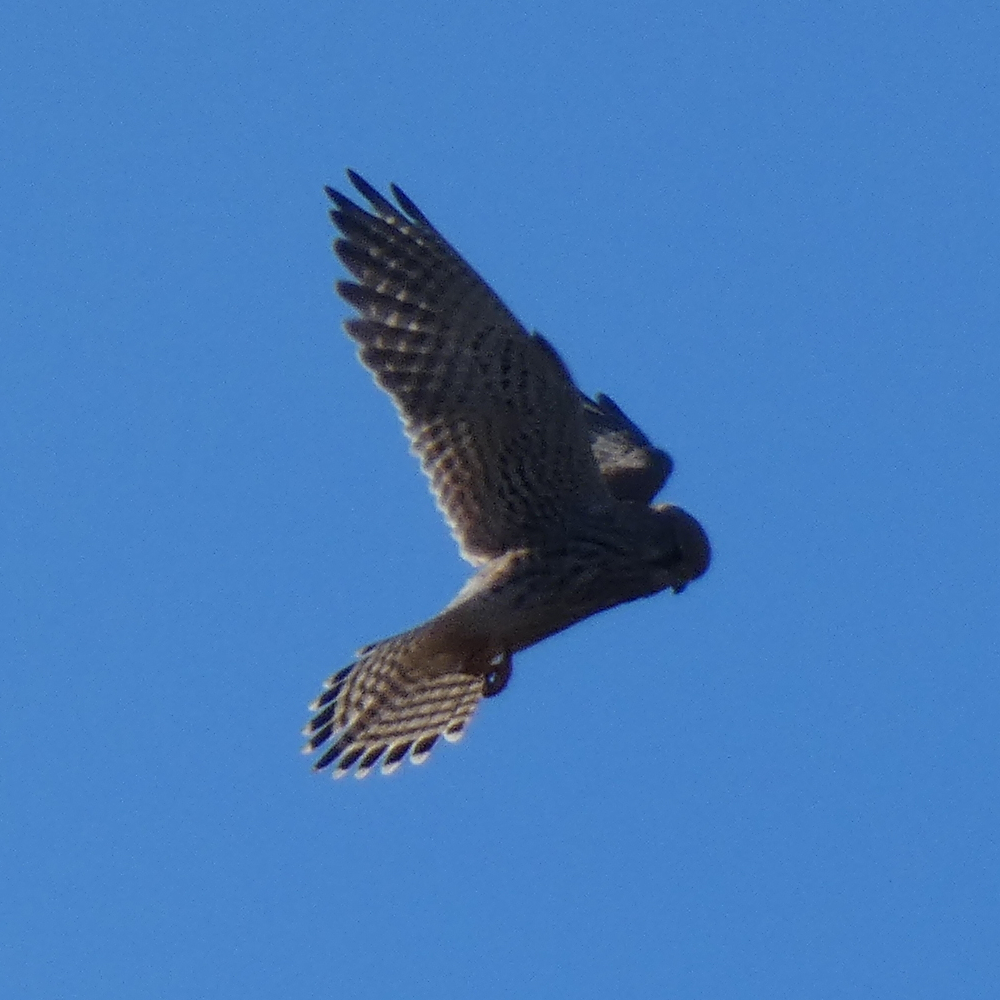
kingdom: Animalia
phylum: Chordata
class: Aves
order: Falconiformes
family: Falconidae
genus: Falco
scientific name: Falco tinnunculus
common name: Common kestrel
